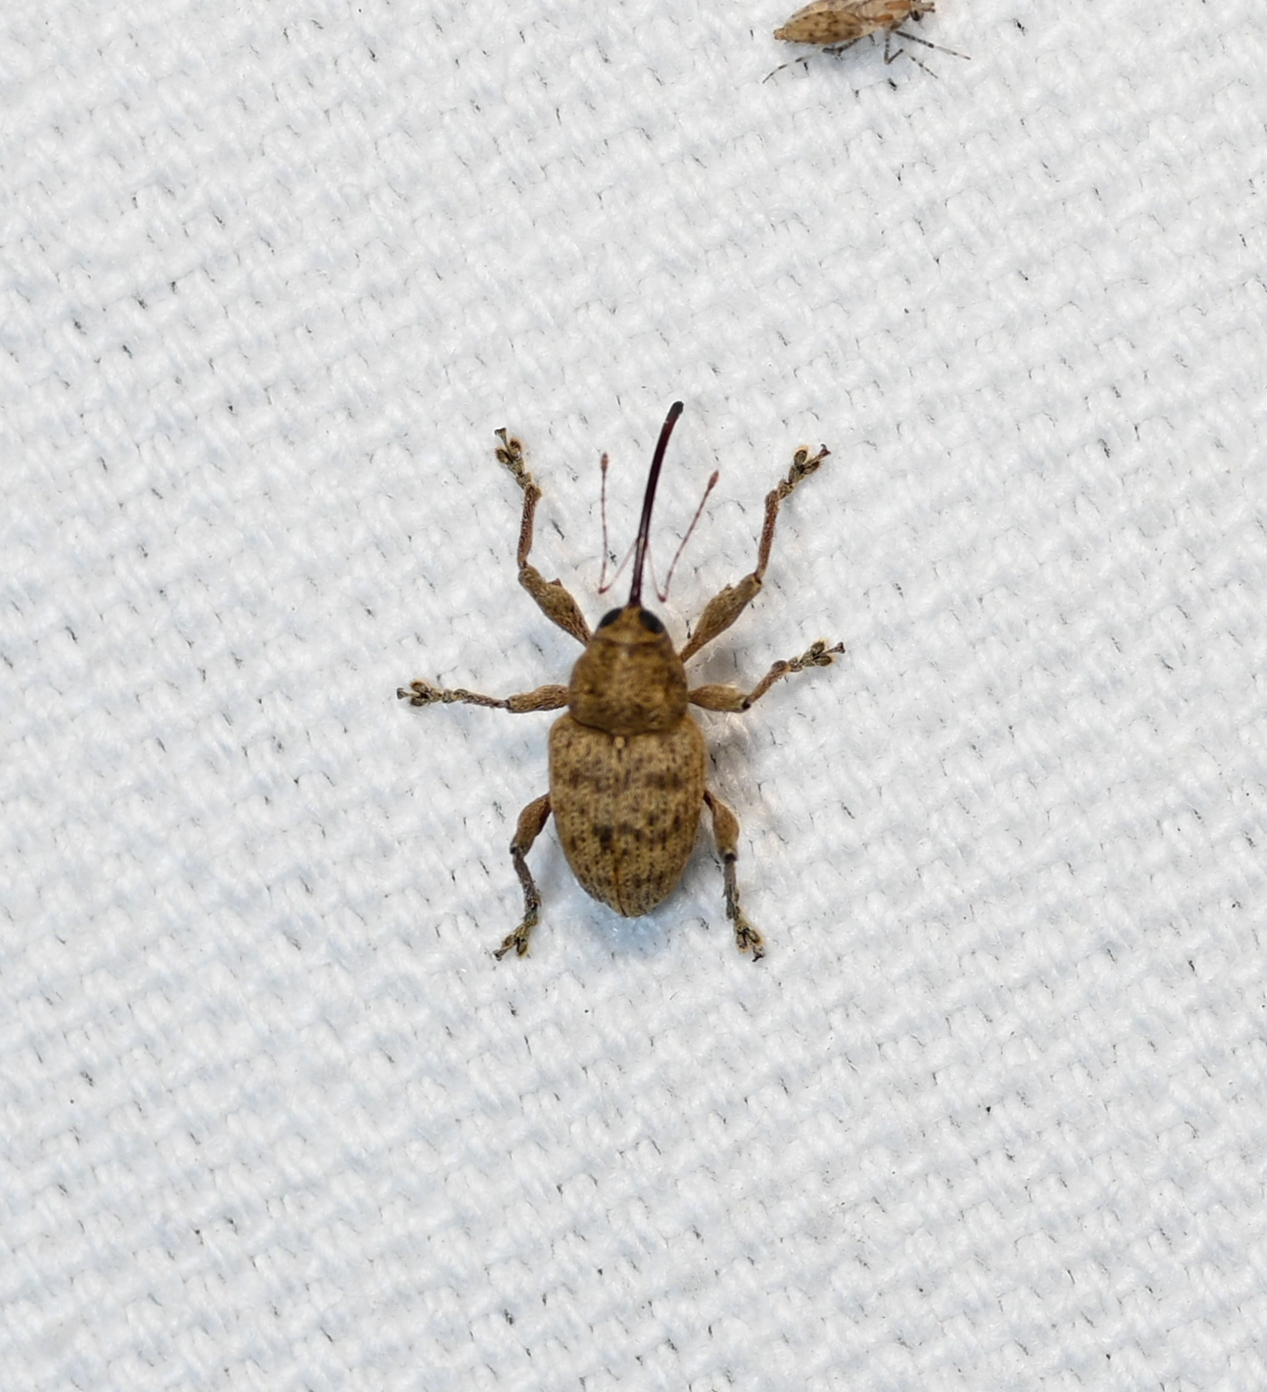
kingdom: Animalia
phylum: Arthropoda
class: Insecta
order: Coleoptera
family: Curculionidae
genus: Curculio
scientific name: Curculio
